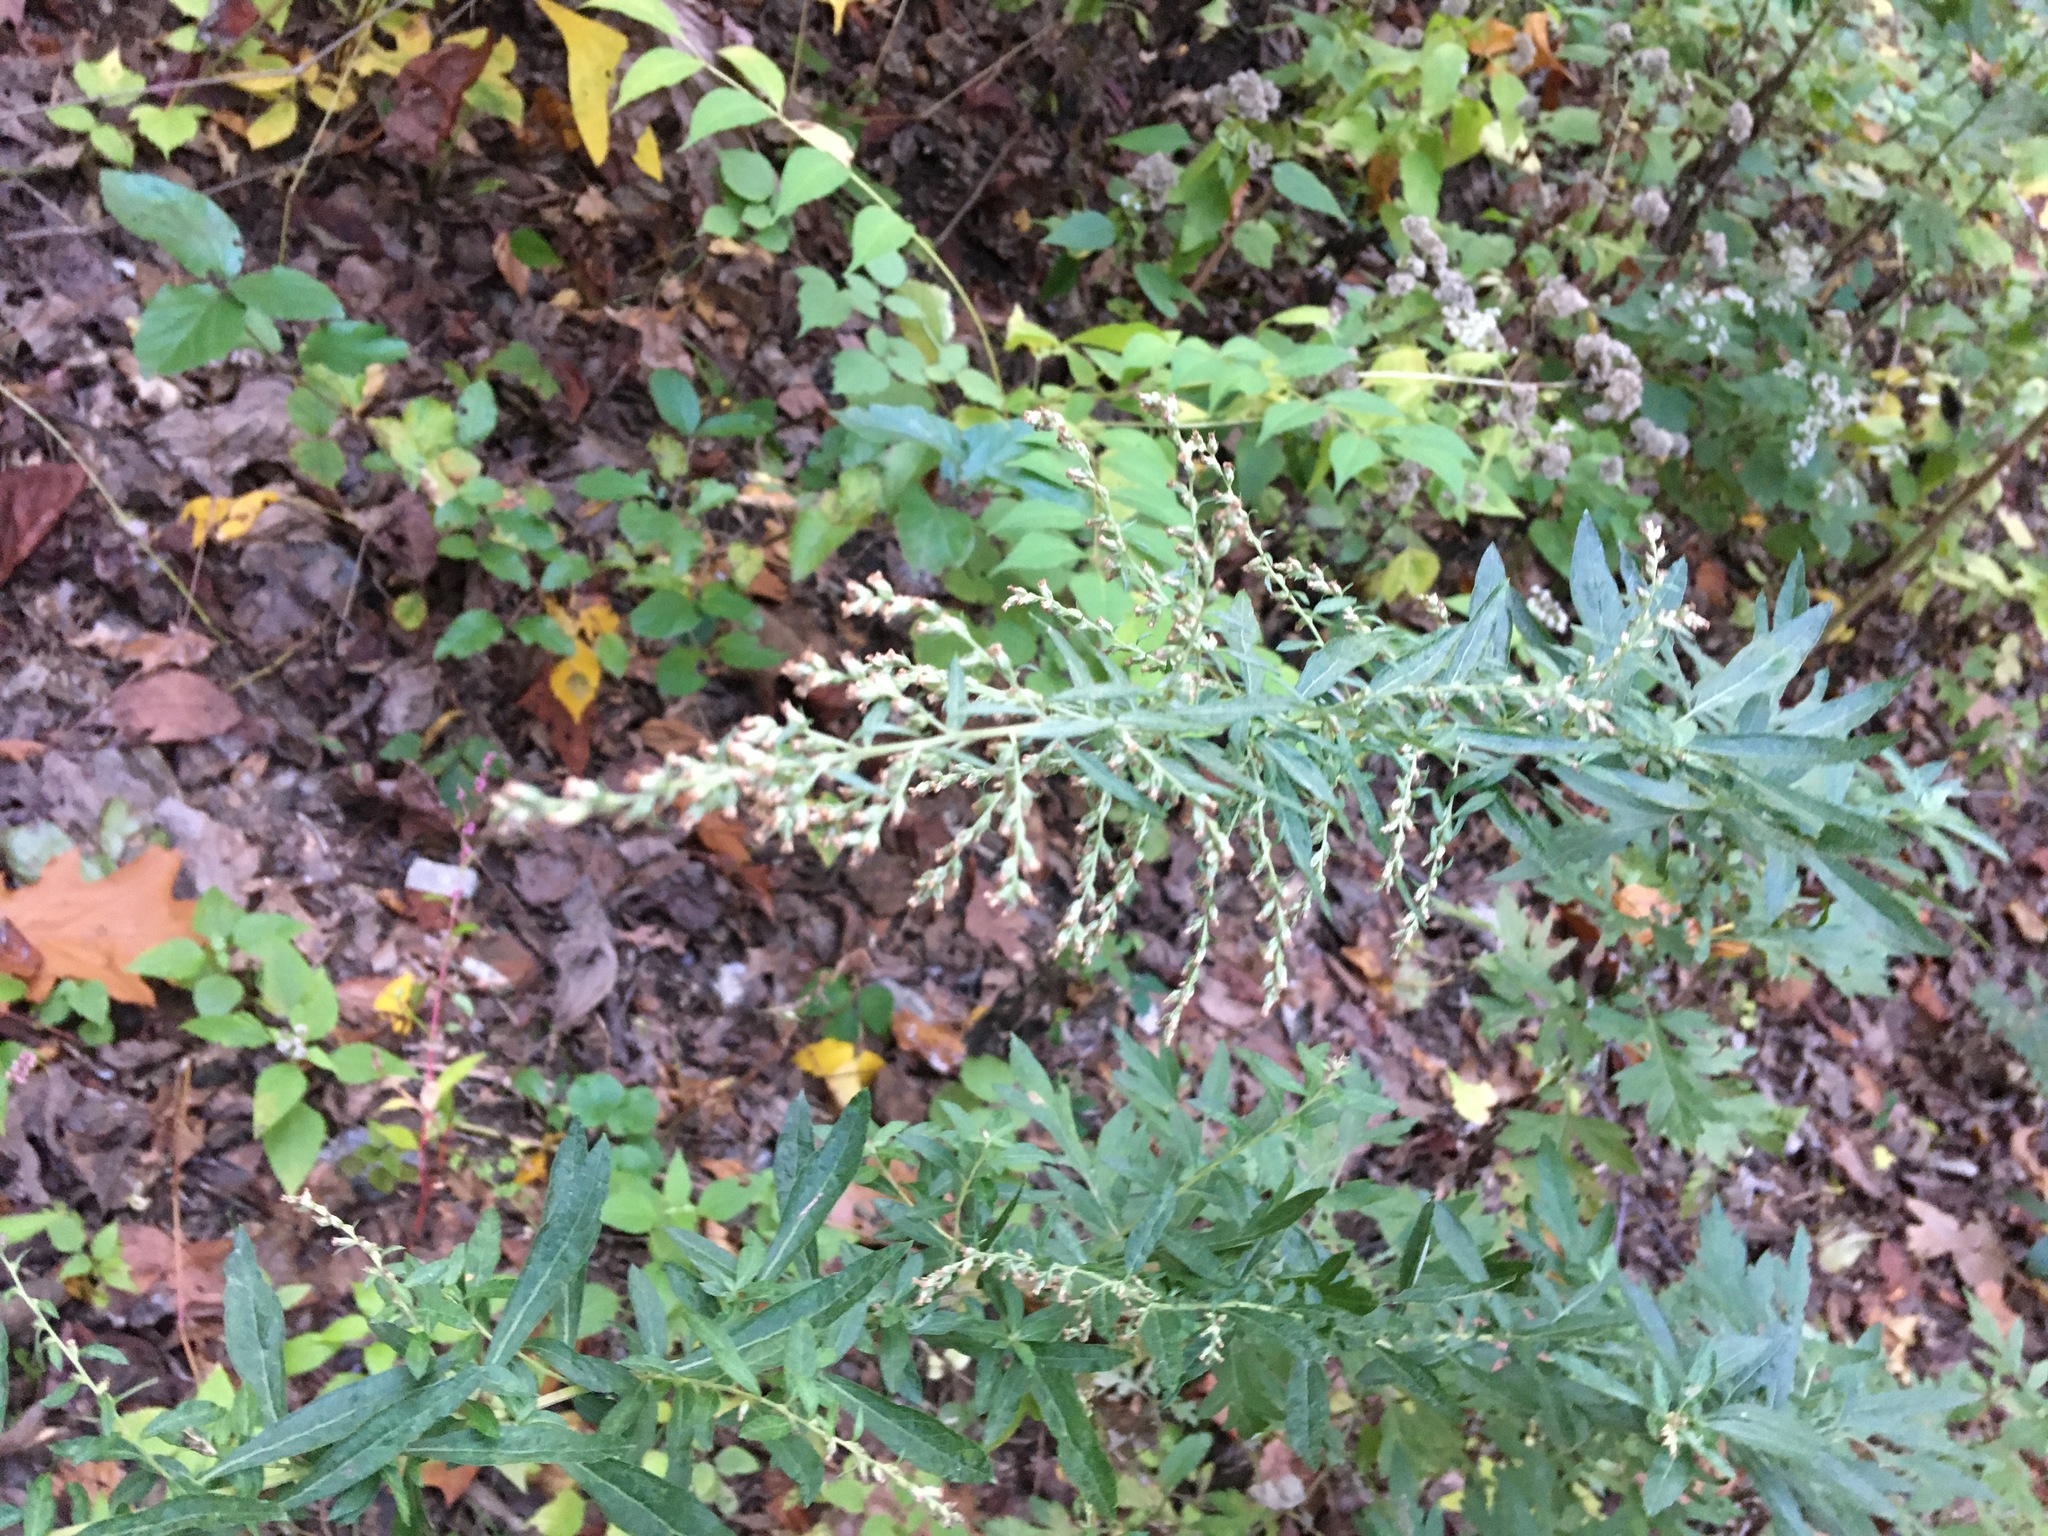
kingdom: Plantae
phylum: Tracheophyta
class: Magnoliopsida
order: Asterales
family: Asteraceae
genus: Artemisia
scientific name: Artemisia vulgaris
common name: Mugwort
